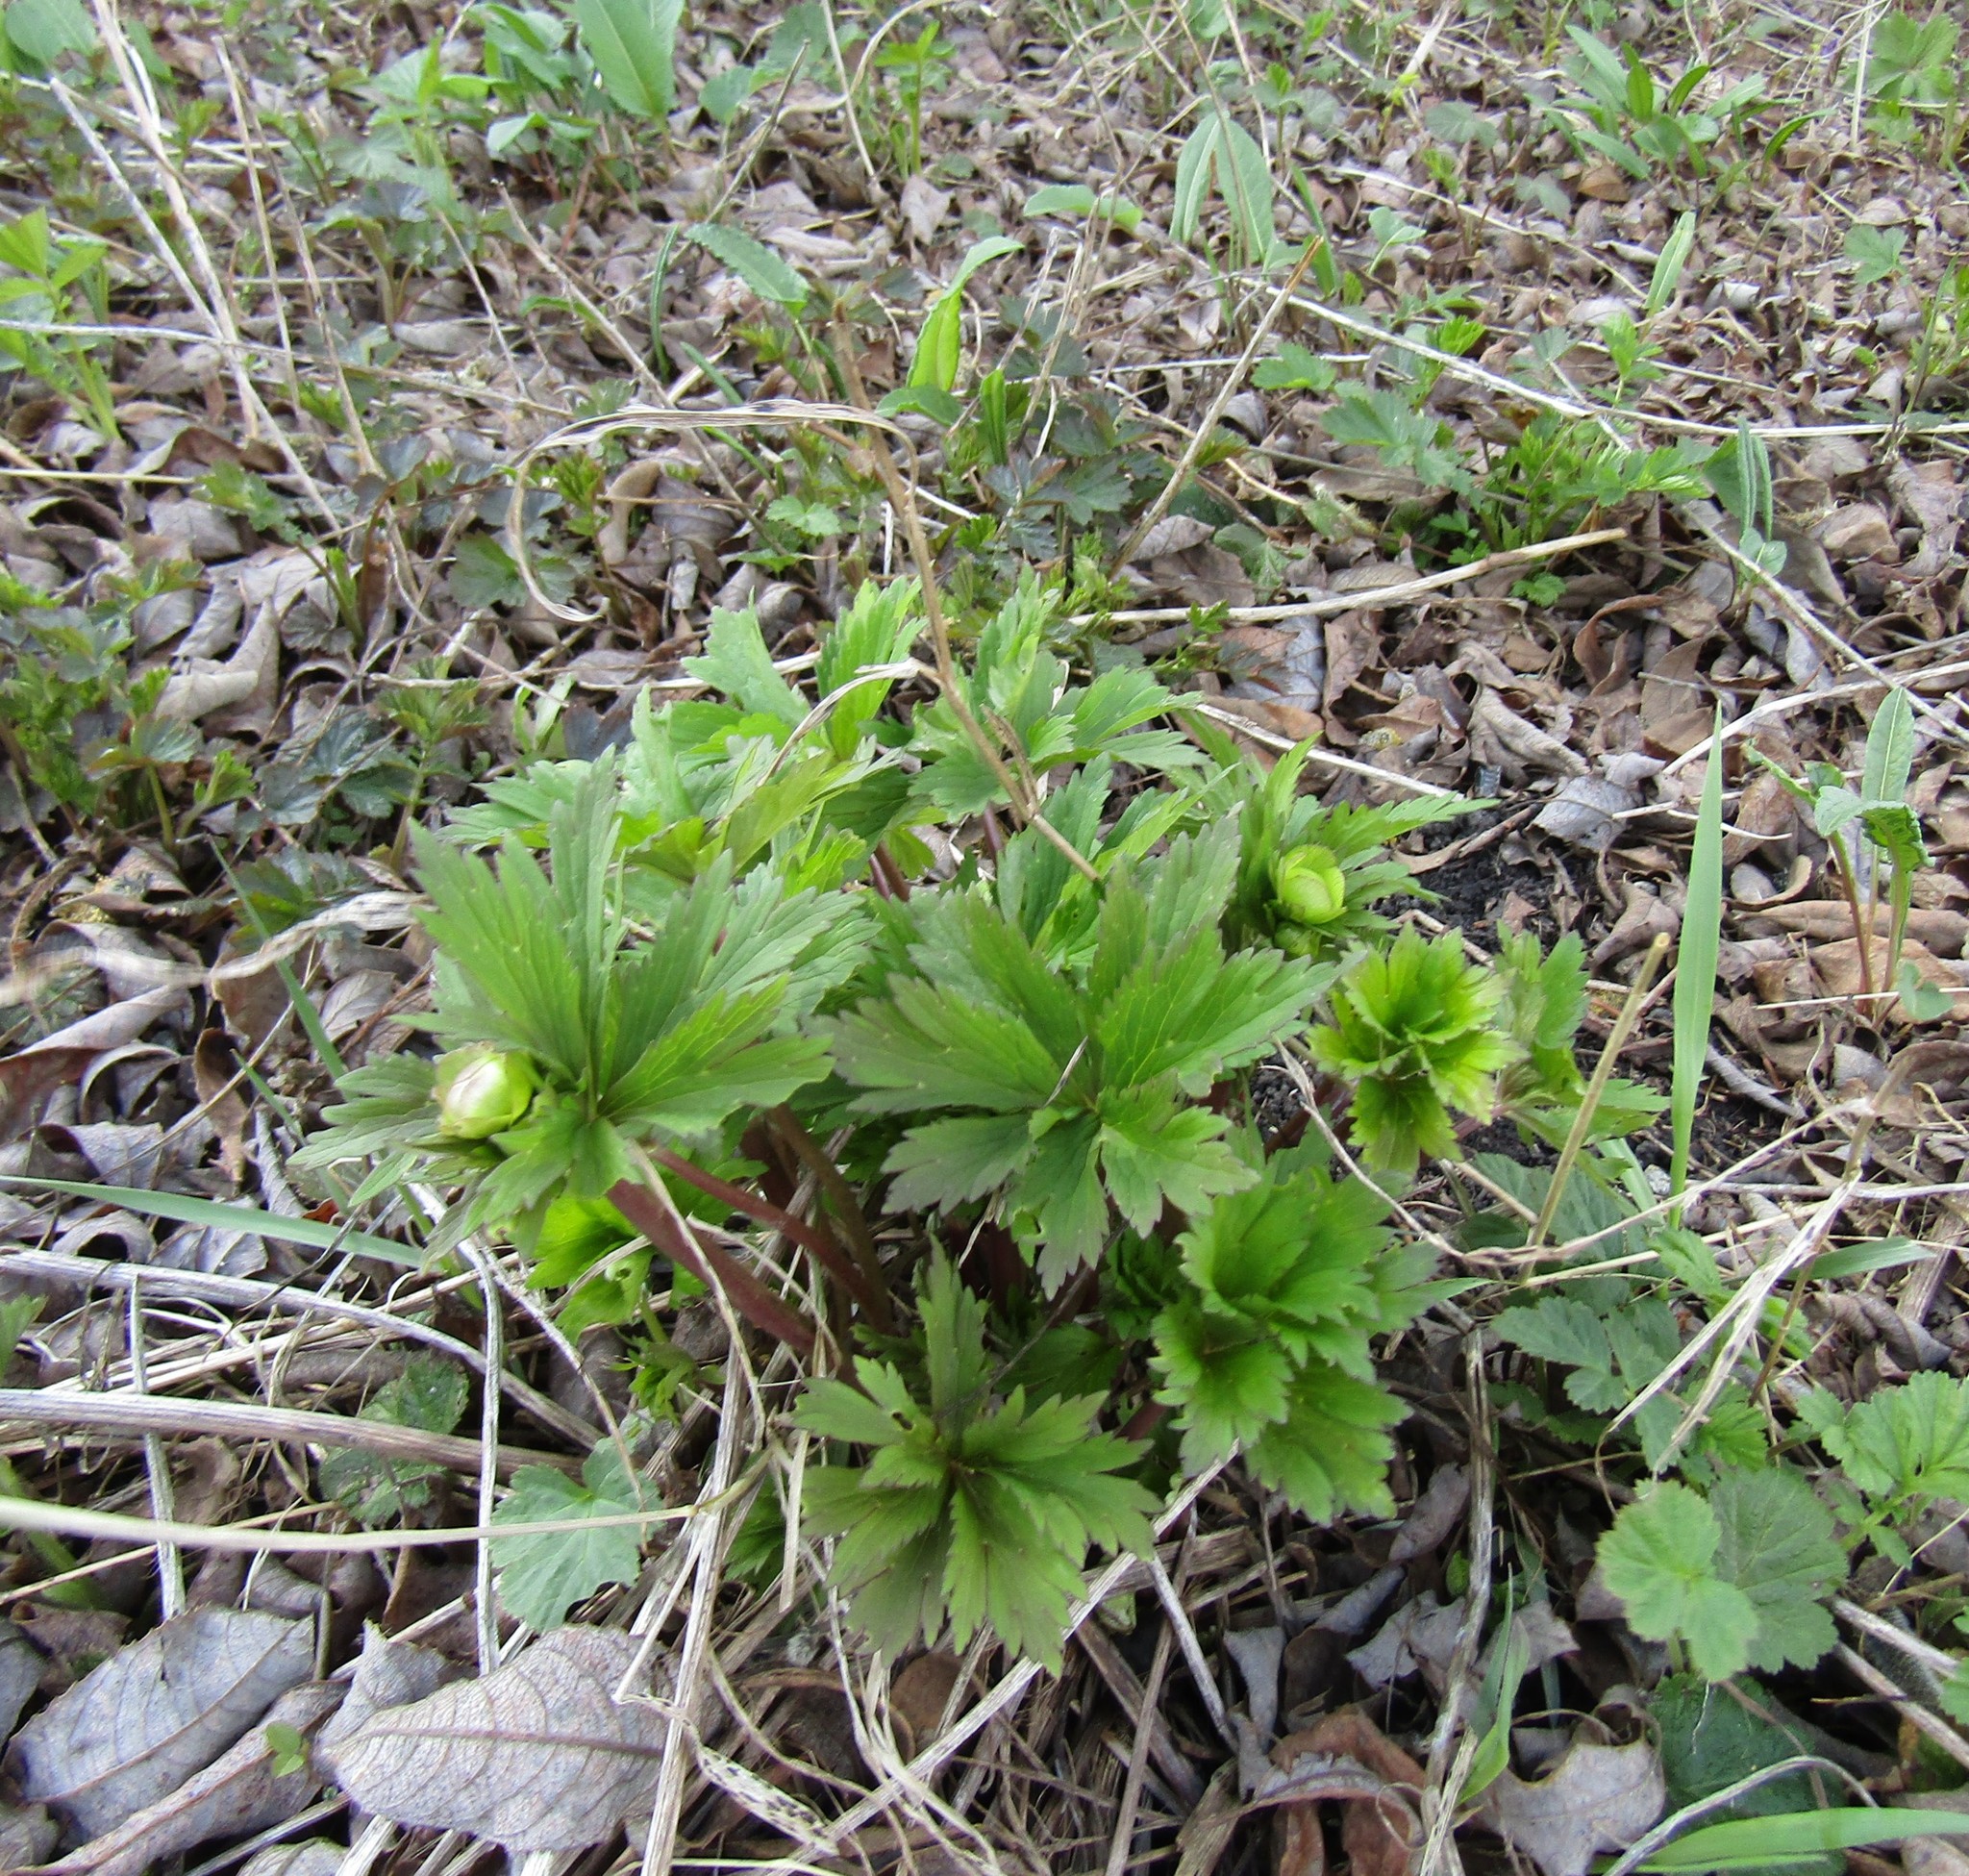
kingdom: Plantae
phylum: Tracheophyta
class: Magnoliopsida
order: Ranunculales
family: Ranunculaceae
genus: Trollius
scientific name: Trollius europaeus
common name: European globeflower
